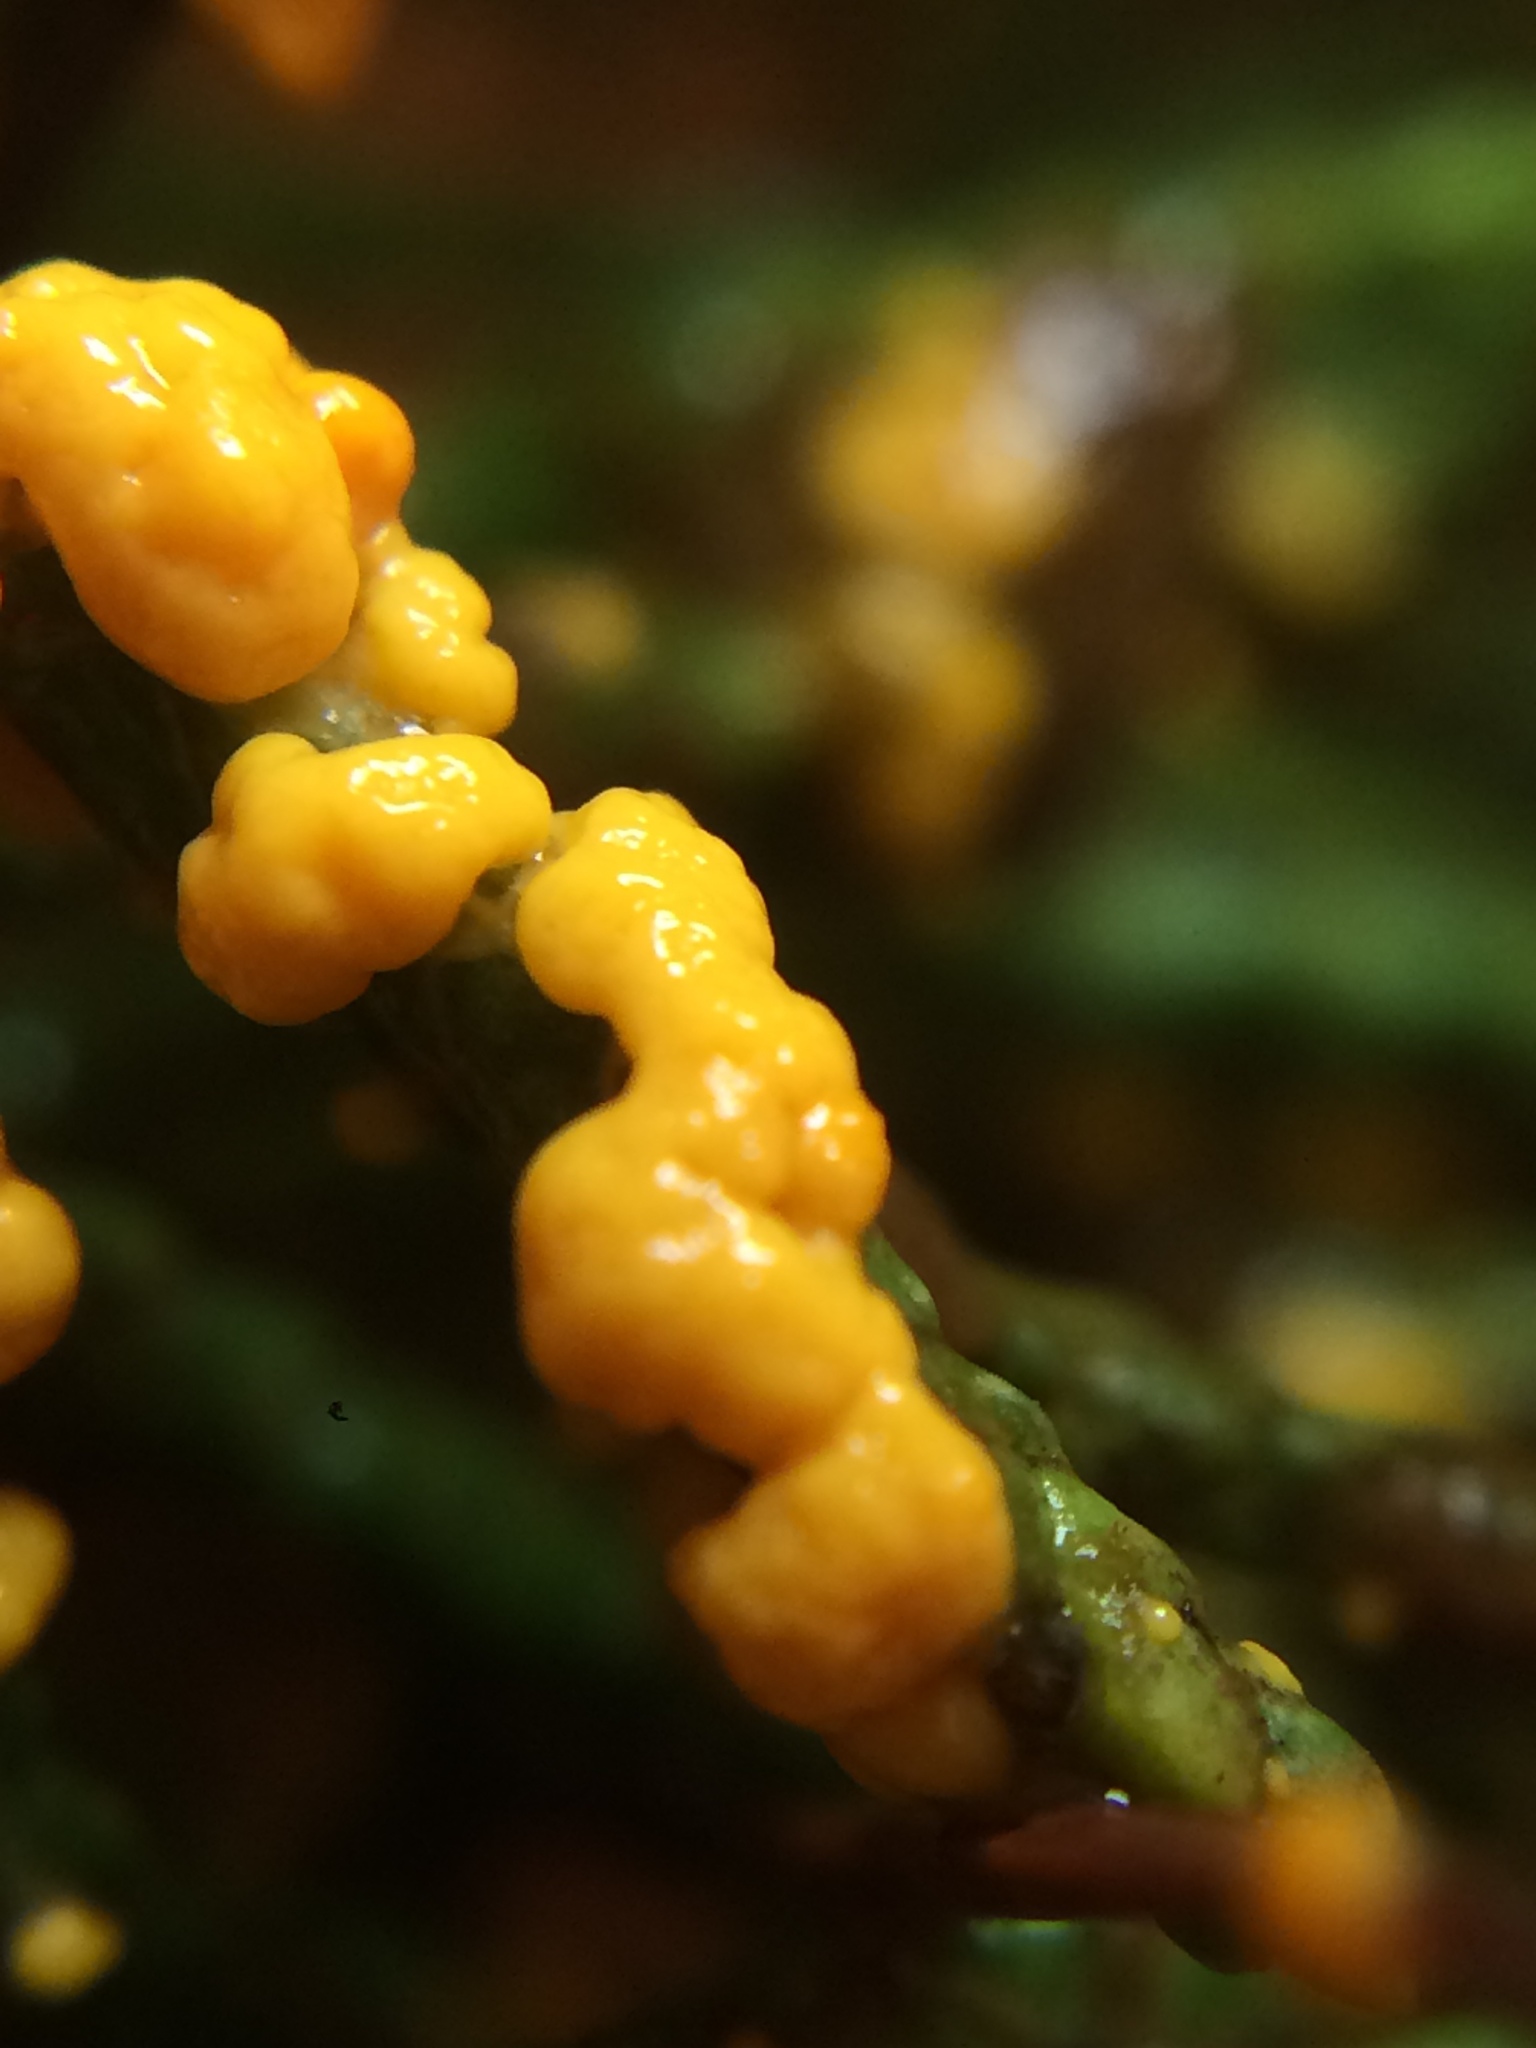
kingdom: Protozoa
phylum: Mycetozoa
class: Myxomycetes
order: Physarales
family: Physaraceae
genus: Leocarpus
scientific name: Leocarpus fragilis
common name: Insect-egg slime
